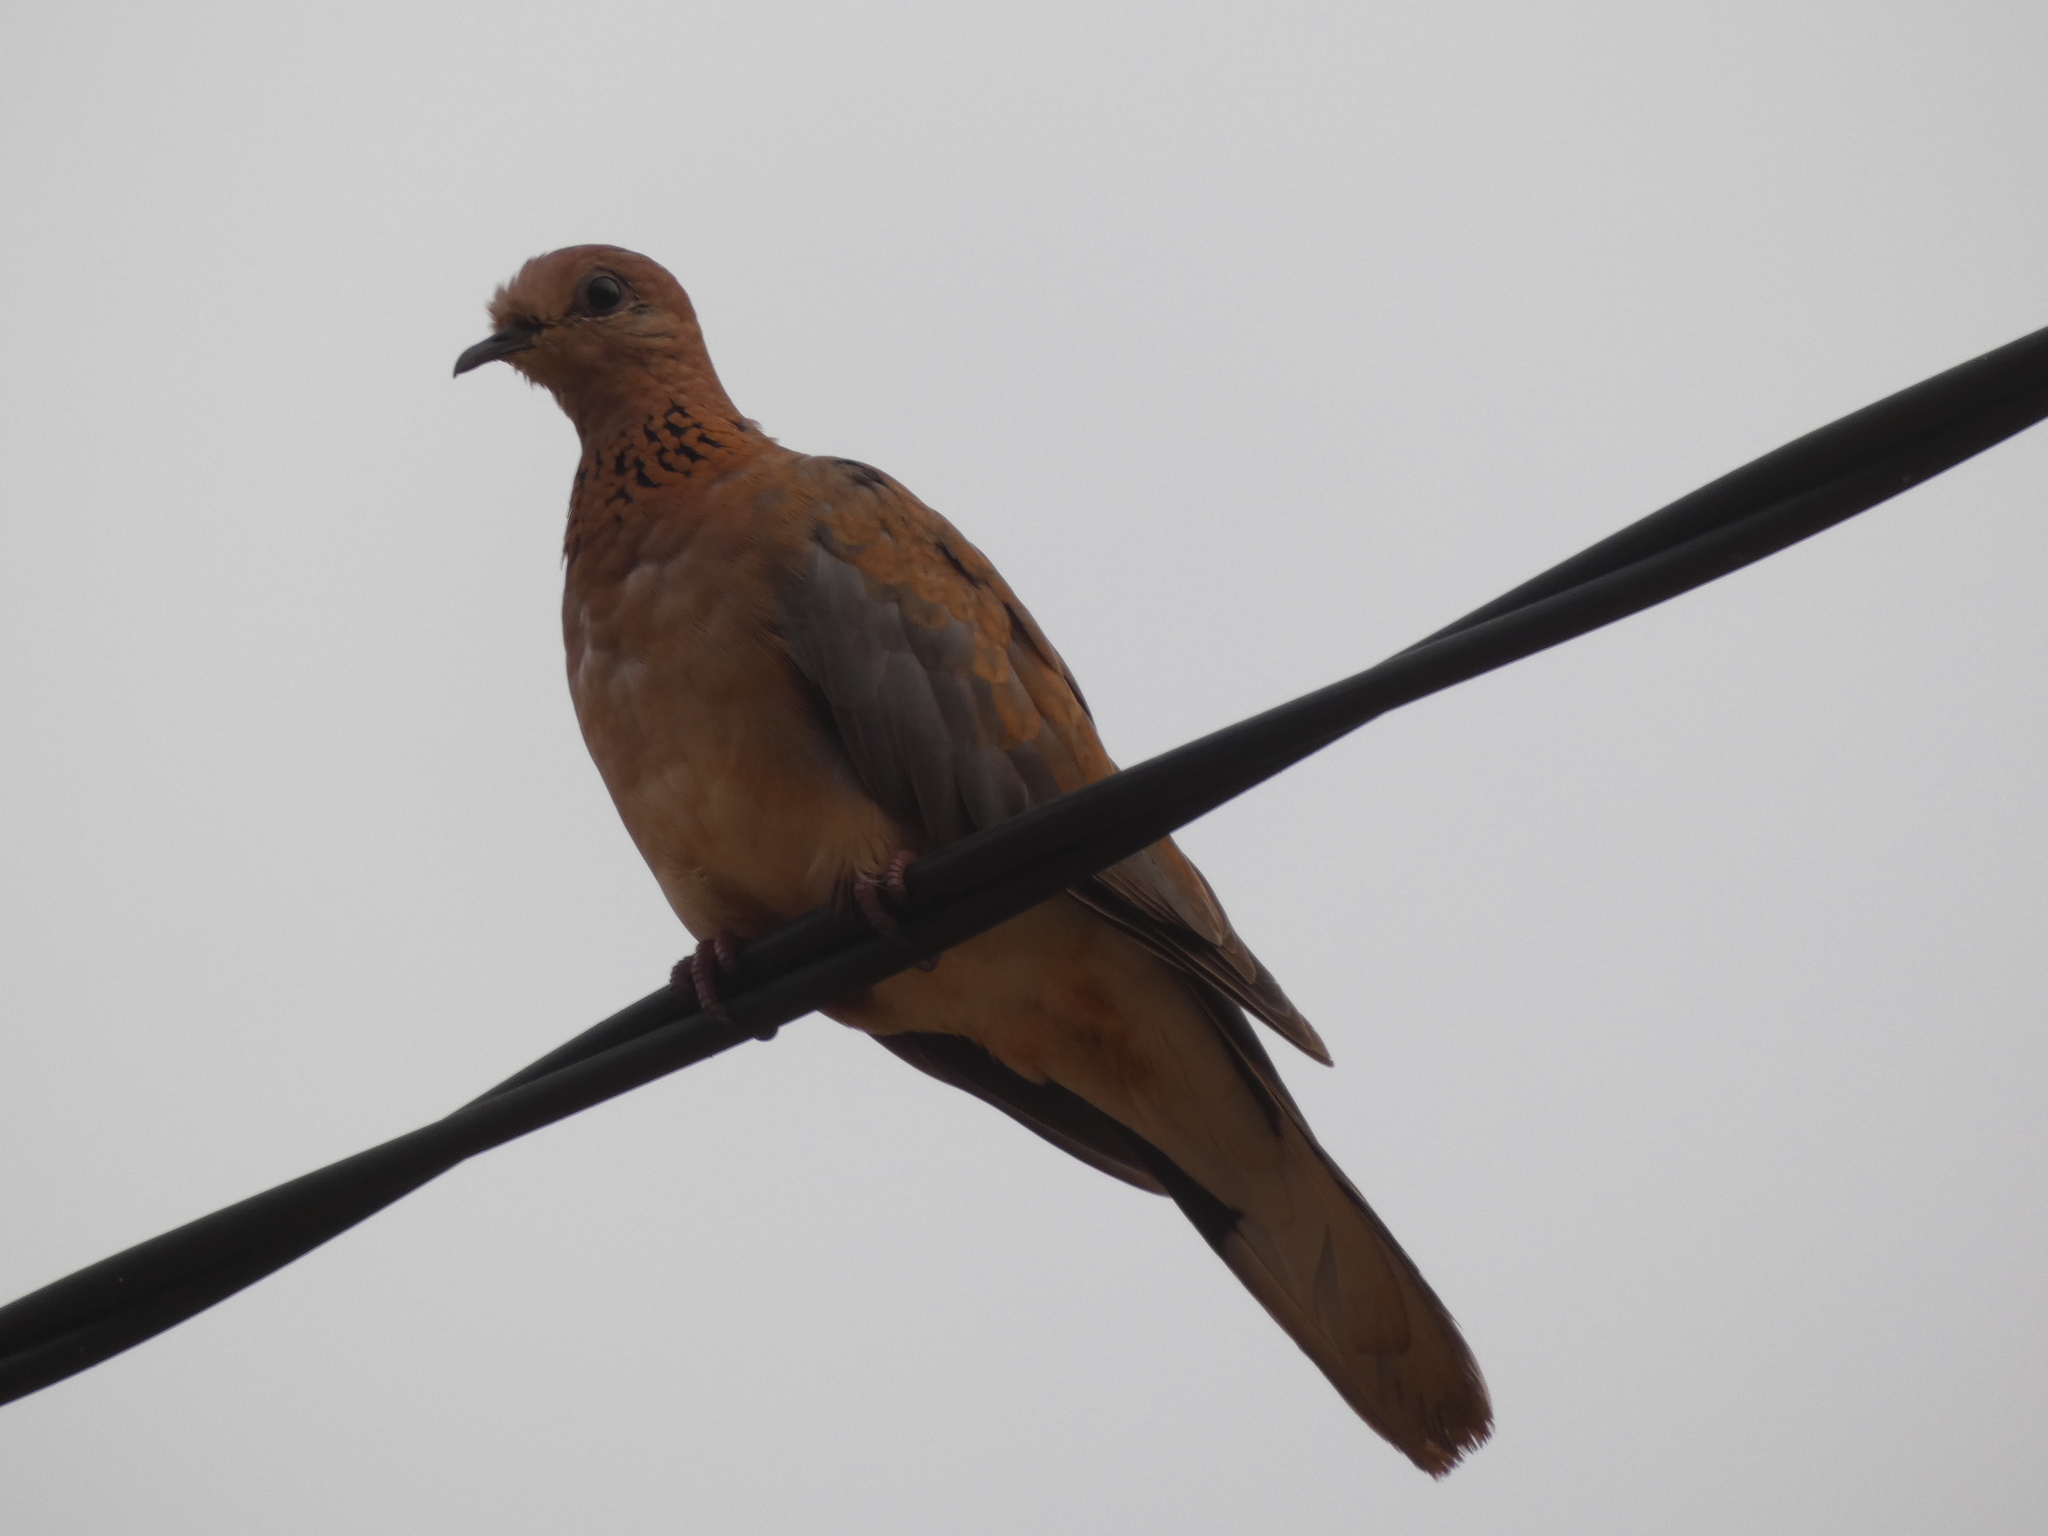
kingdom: Animalia
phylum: Chordata
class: Aves
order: Columbiformes
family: Columbidae
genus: Spilopelia
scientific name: Spilopelia senegalensis
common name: Laughing dove
